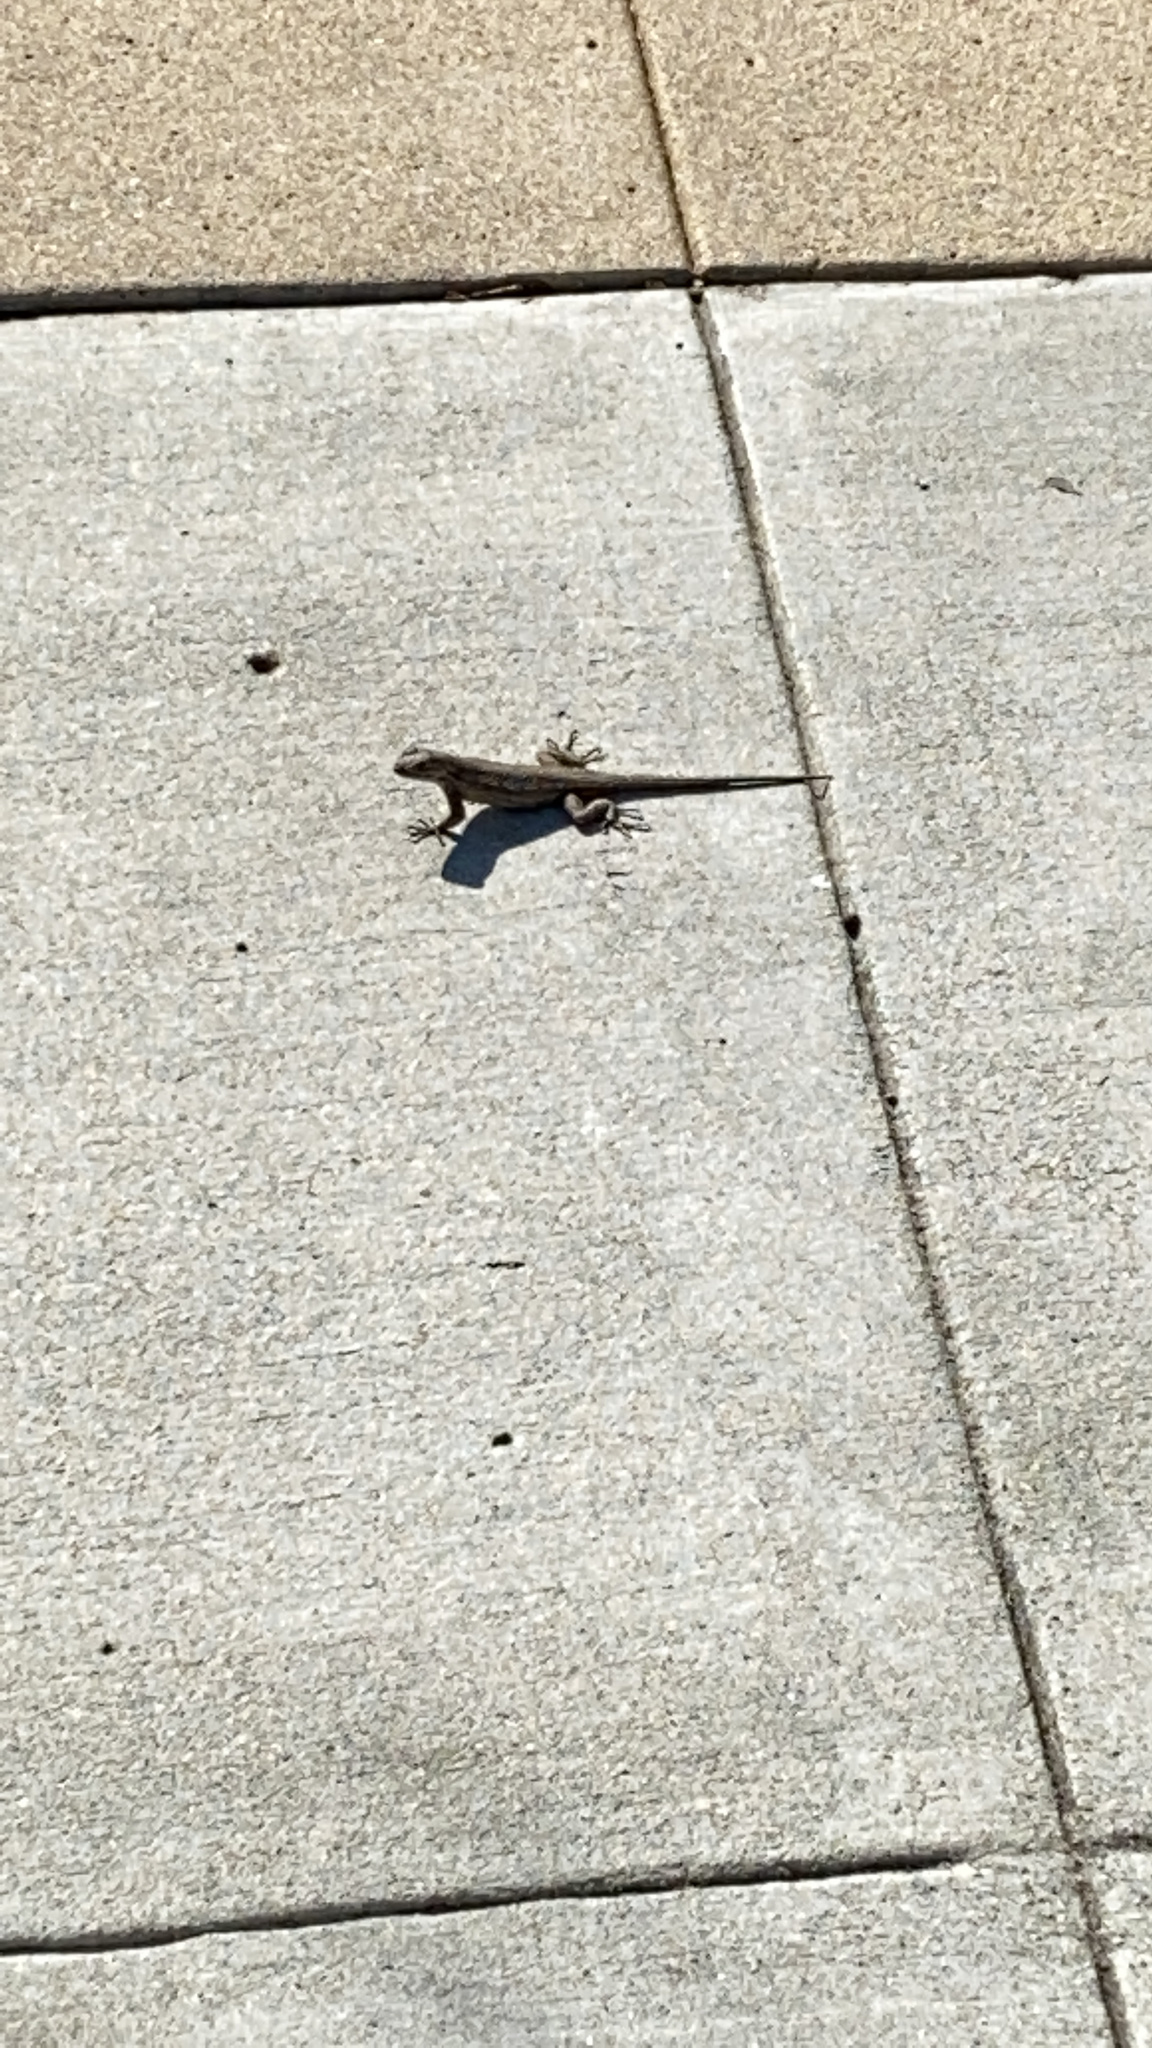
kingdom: Animalia
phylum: Chordata
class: Squamata
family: Phrynosomatidae
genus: Sceloporus
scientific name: Sceloporus occidentalis
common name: Western fence lizard
